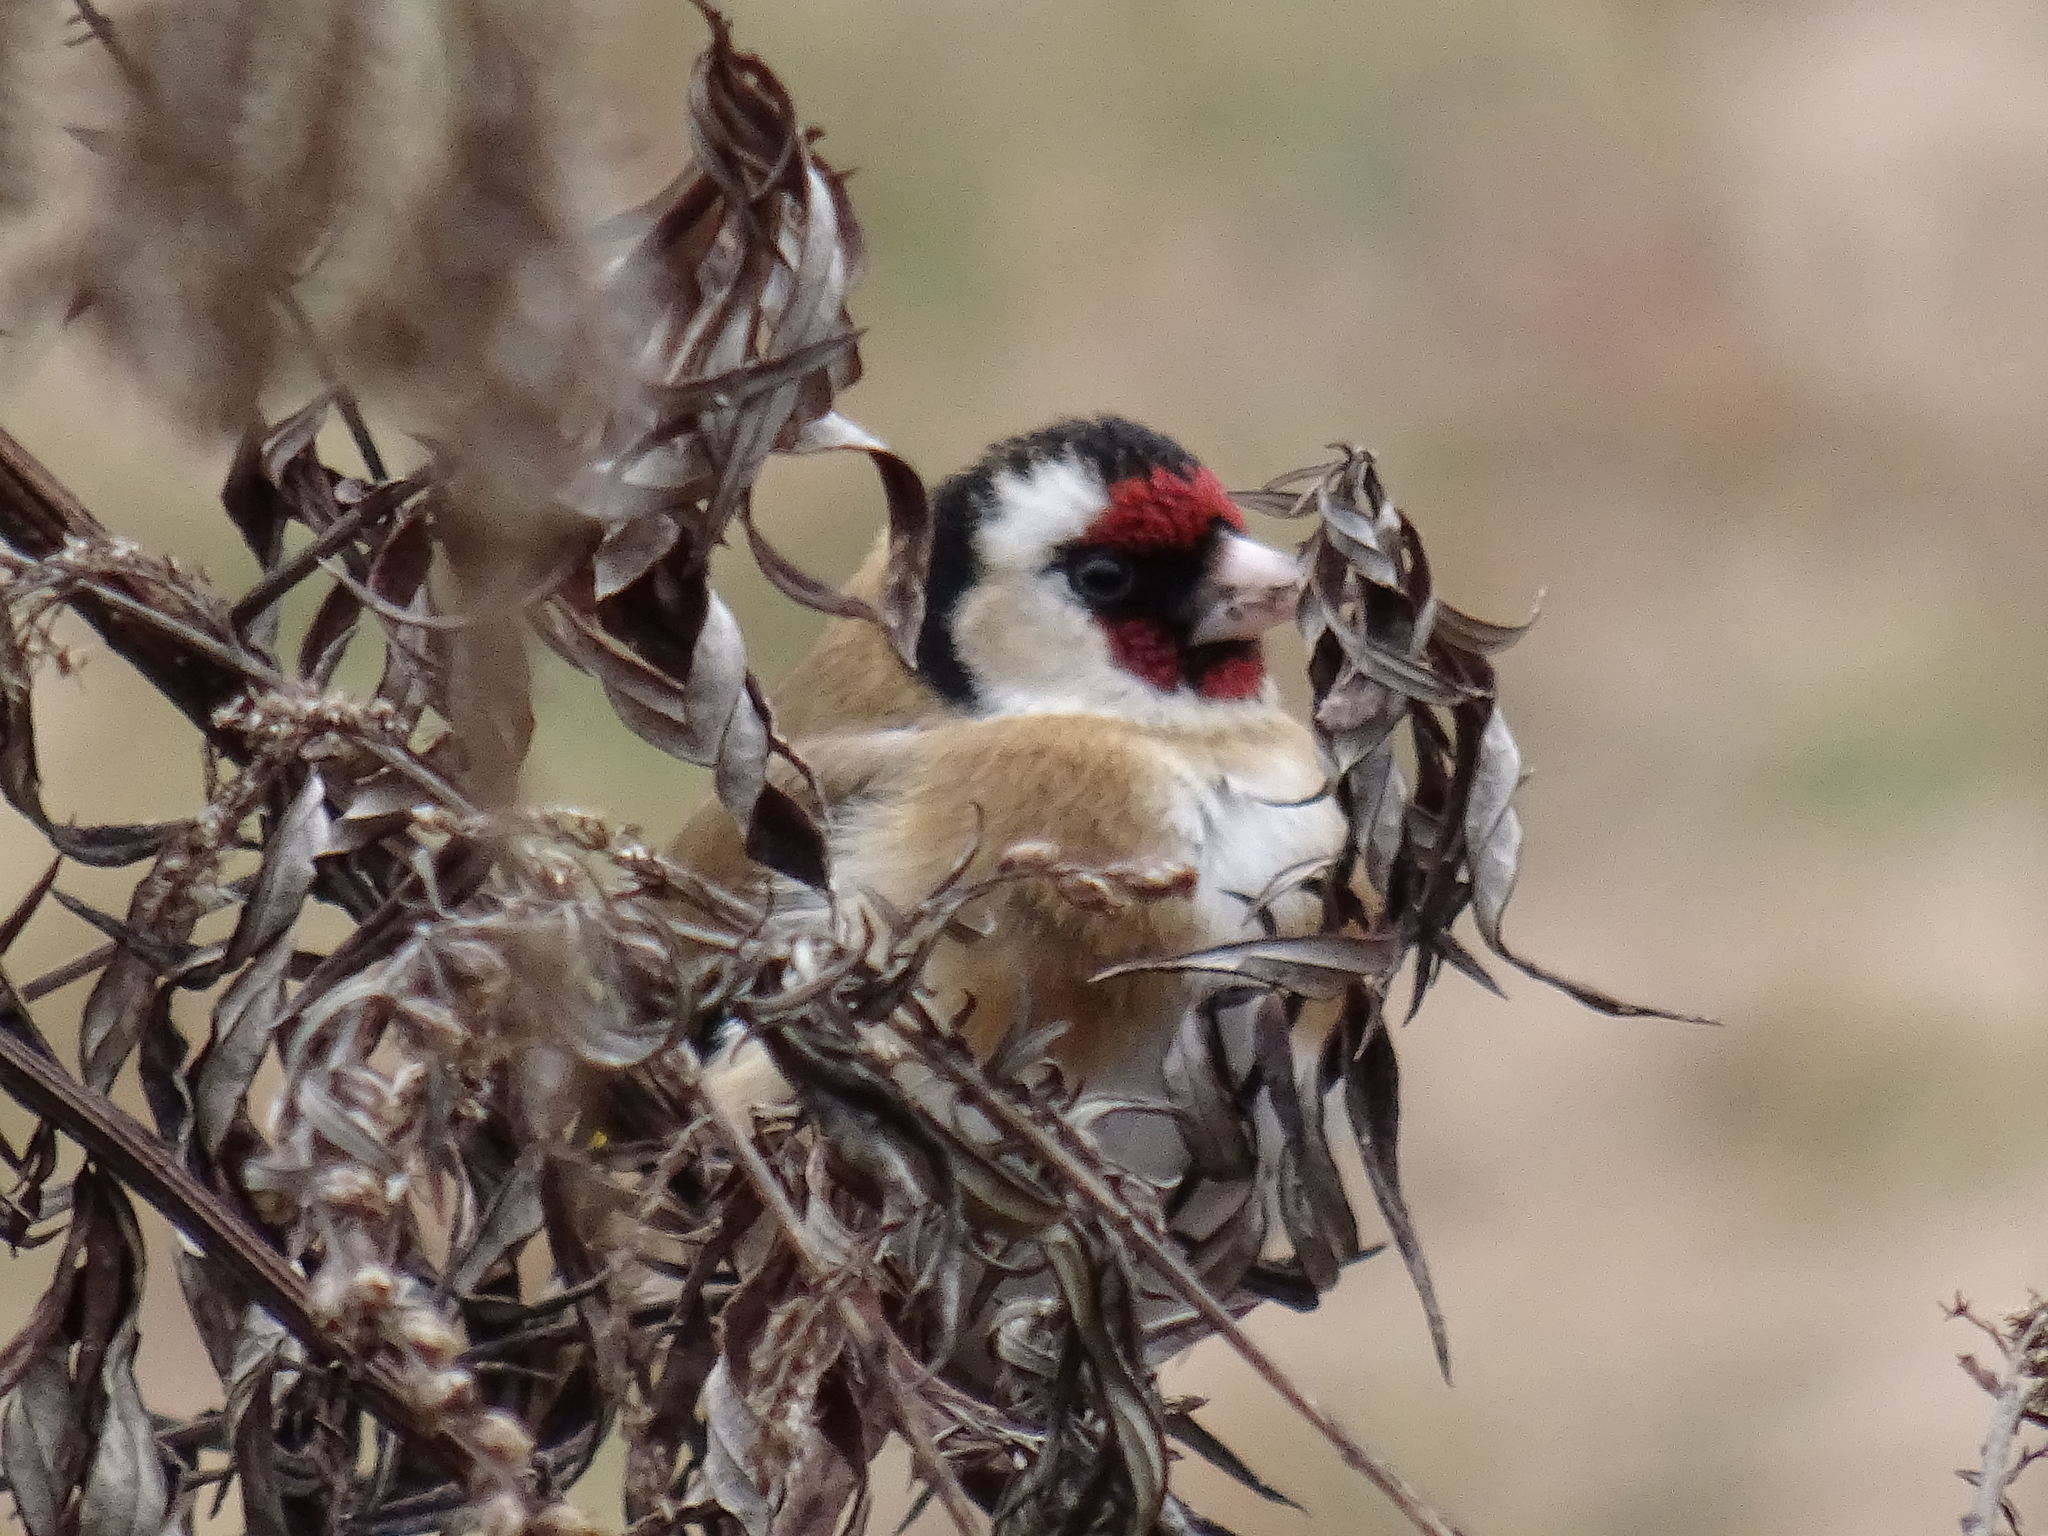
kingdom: Animalia
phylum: Chordata
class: Aves
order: Passeriformes
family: Fringillidae
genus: Carduelis
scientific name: Carduelis carduelis
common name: European goldfinch
